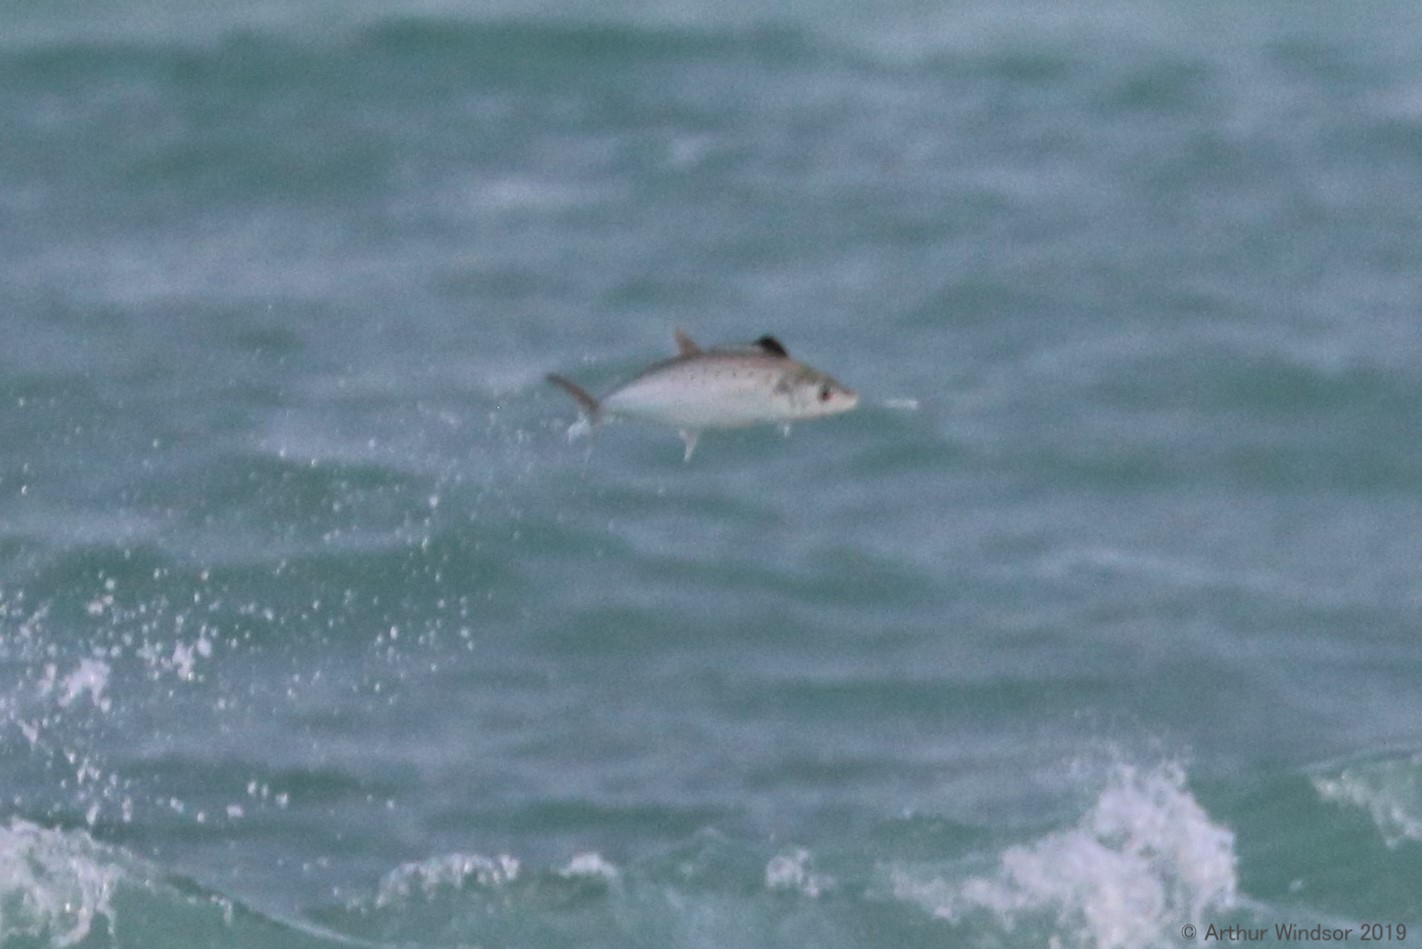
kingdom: Animalia
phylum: Chordata
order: Perciformes
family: Scombridae
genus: Scomberomorus
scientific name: Scomberomorus maculatus
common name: Spanish mackerel
